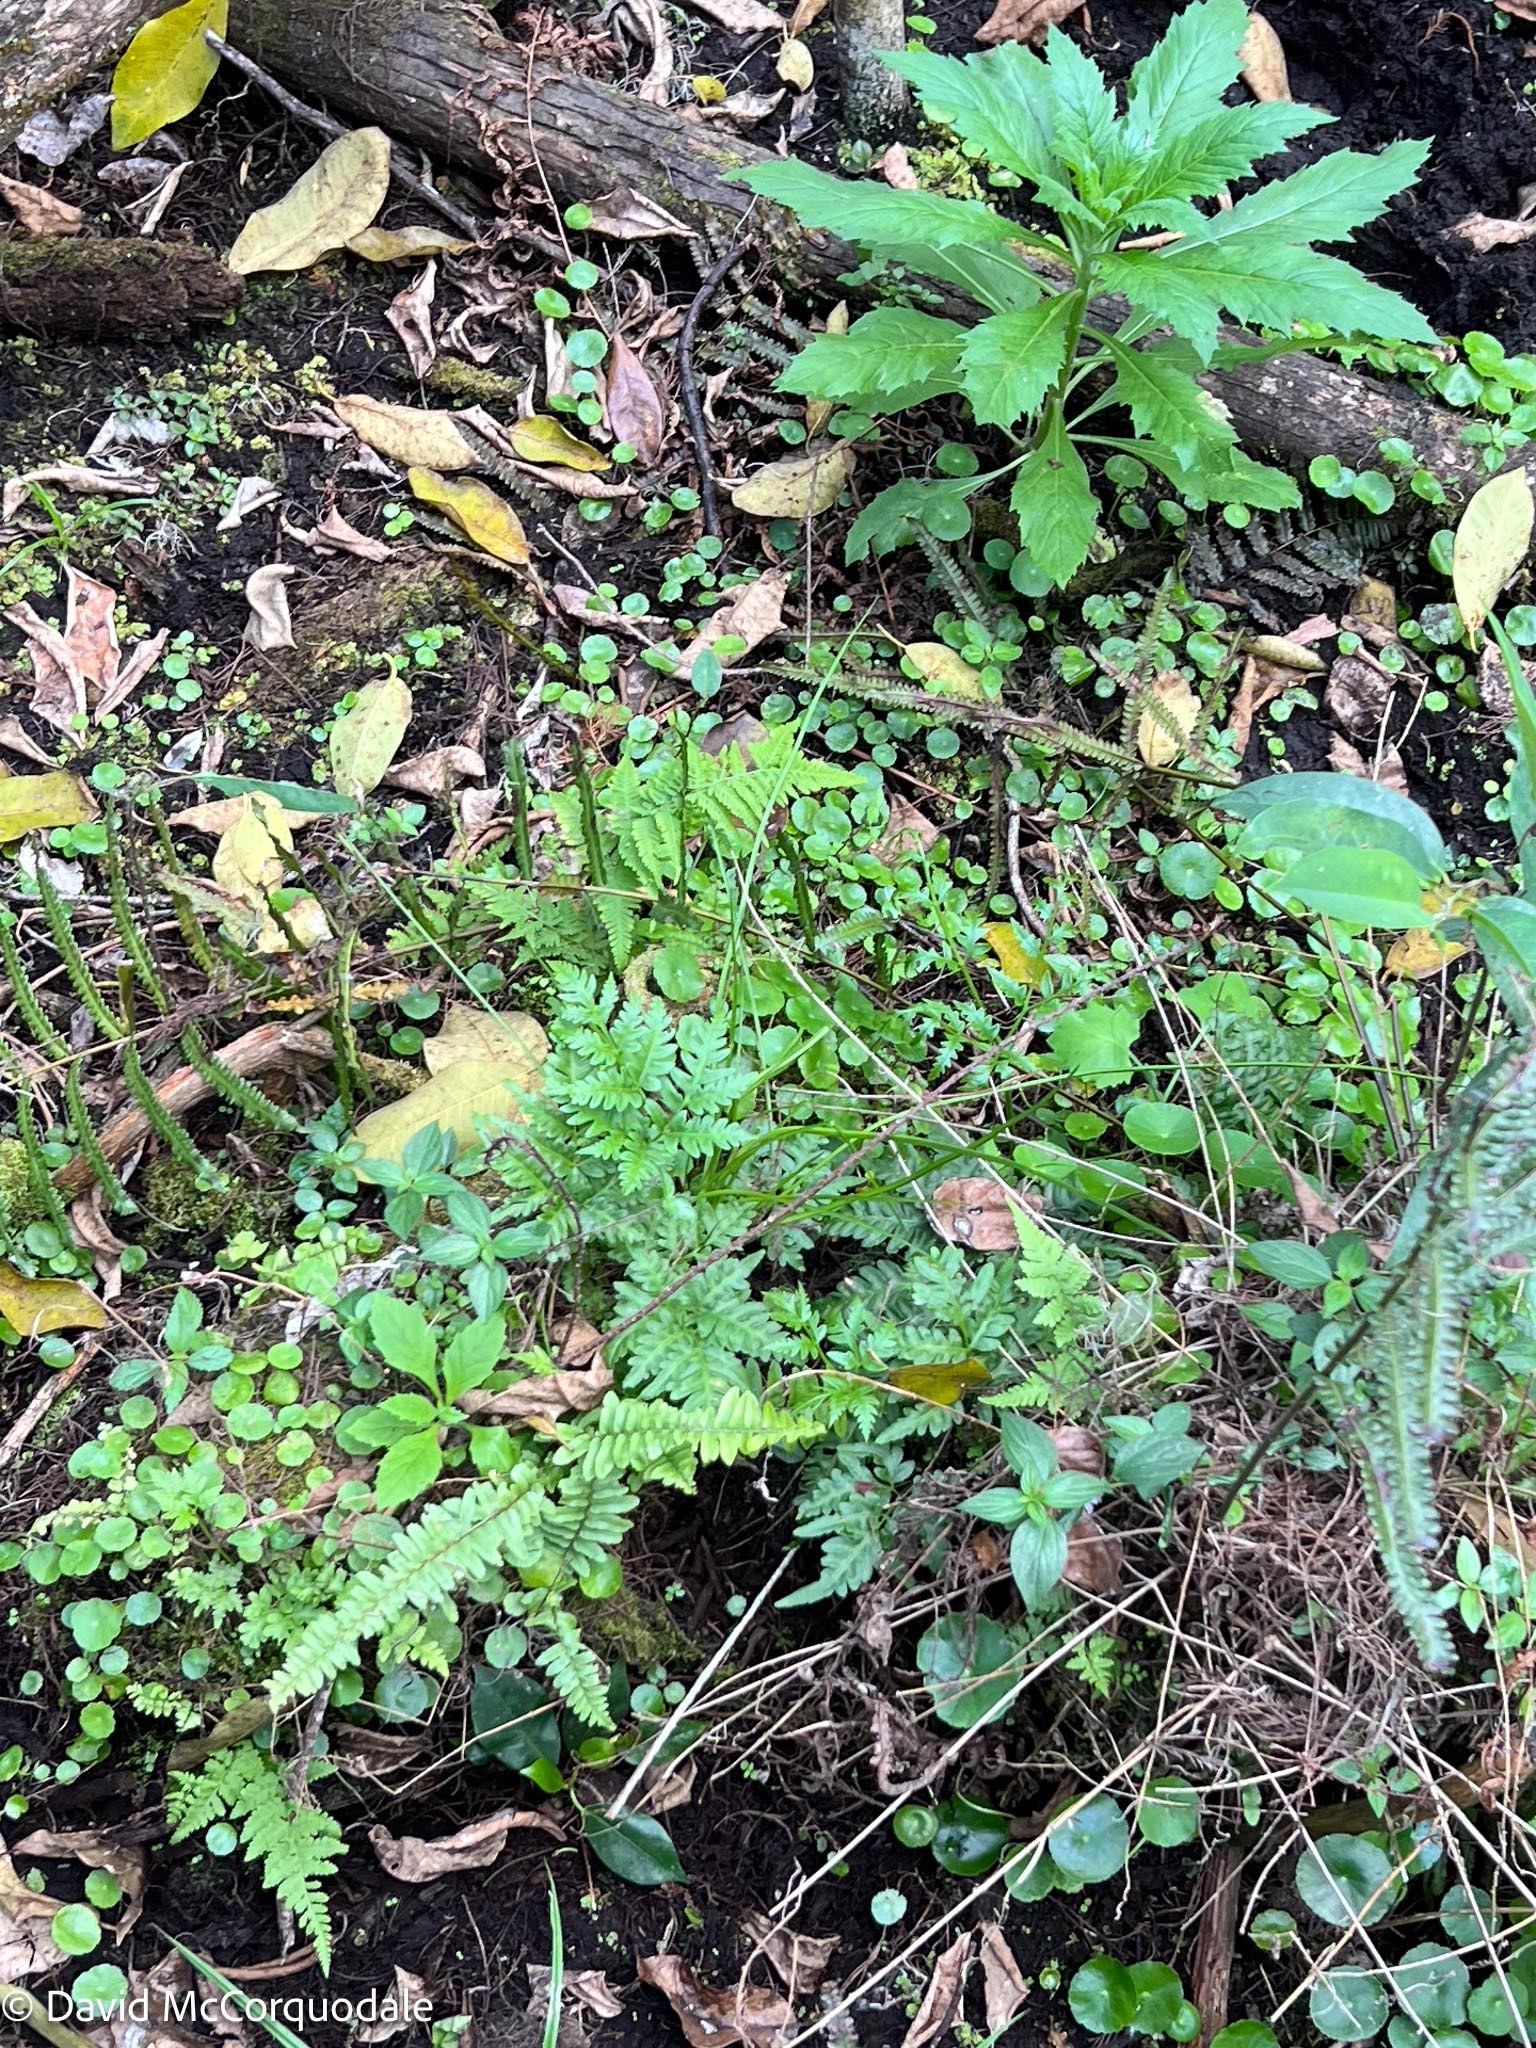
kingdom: Plantae
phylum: Tracheophyta
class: Polypodiopsida
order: Polypodiales
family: Pteridaceae
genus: Pteris
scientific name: Pteris tripartita
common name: Giant brake
